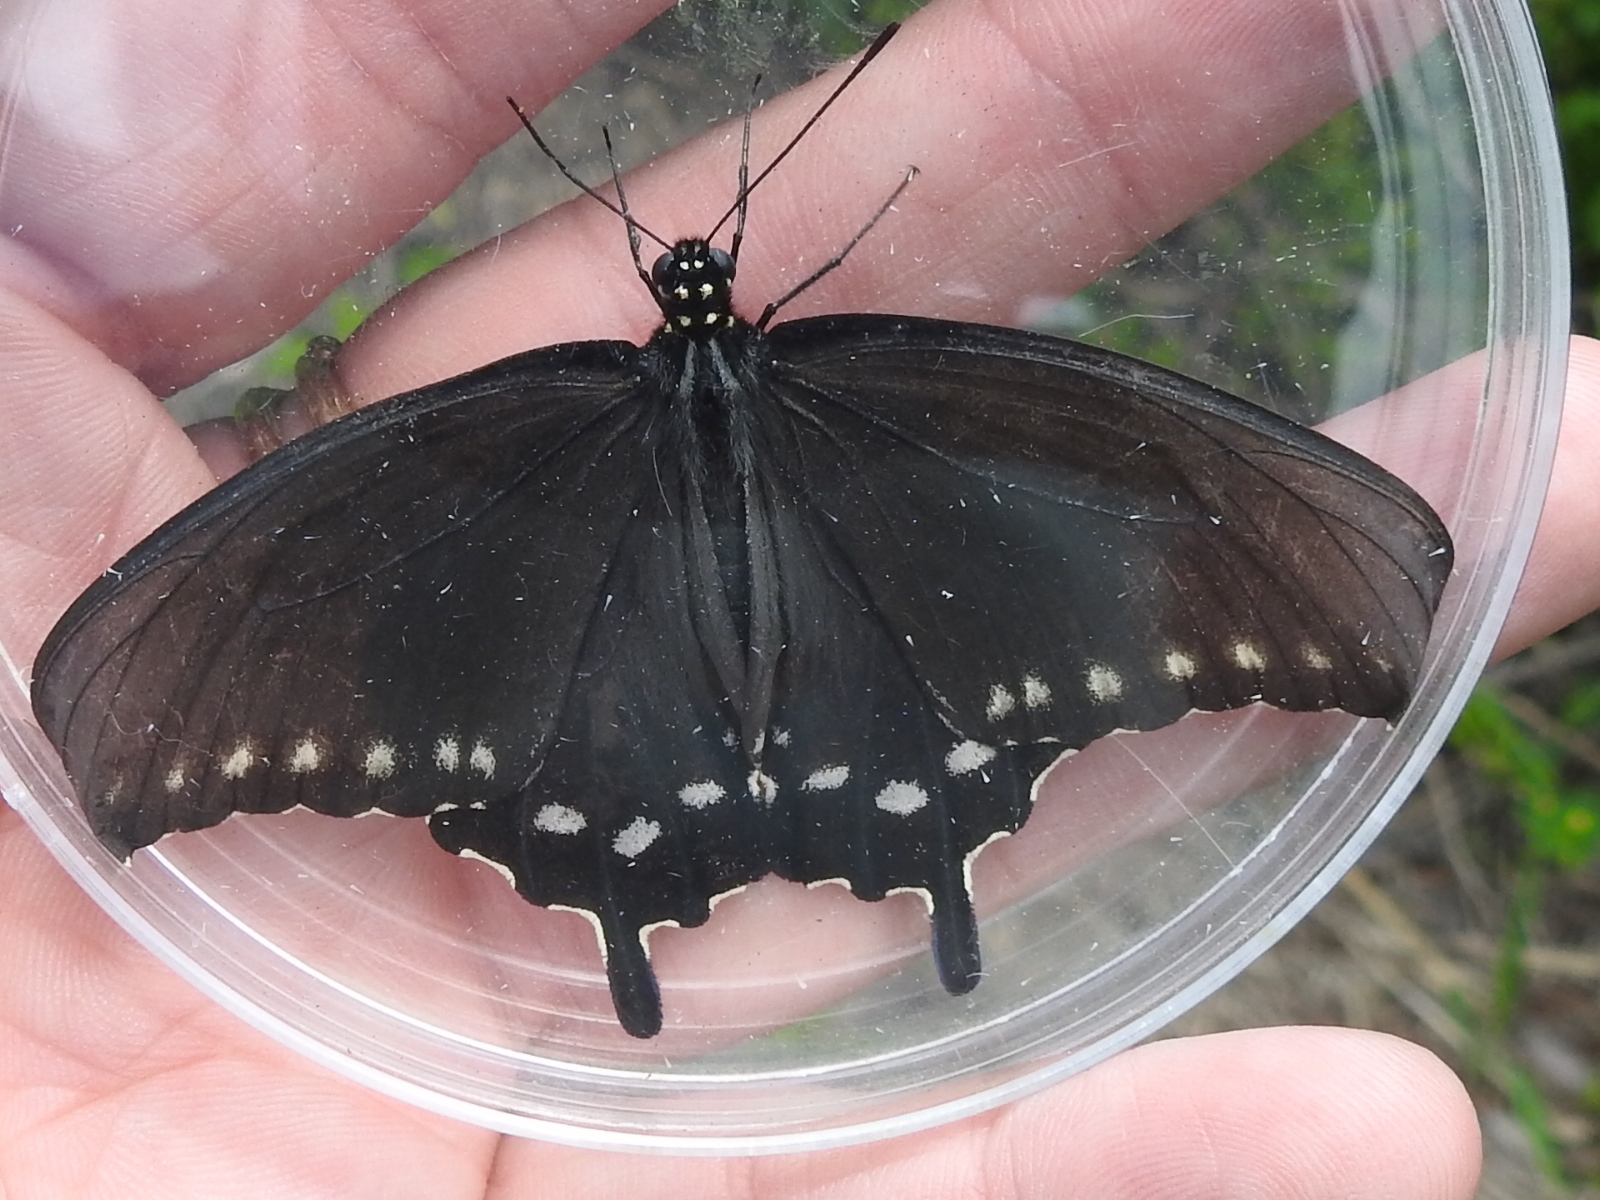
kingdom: Animalia
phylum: Arthropoda
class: Insecta
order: Lepidoptera
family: Papilionidae
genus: Battus
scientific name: Battus philenor
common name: Pipevine swallowtail
